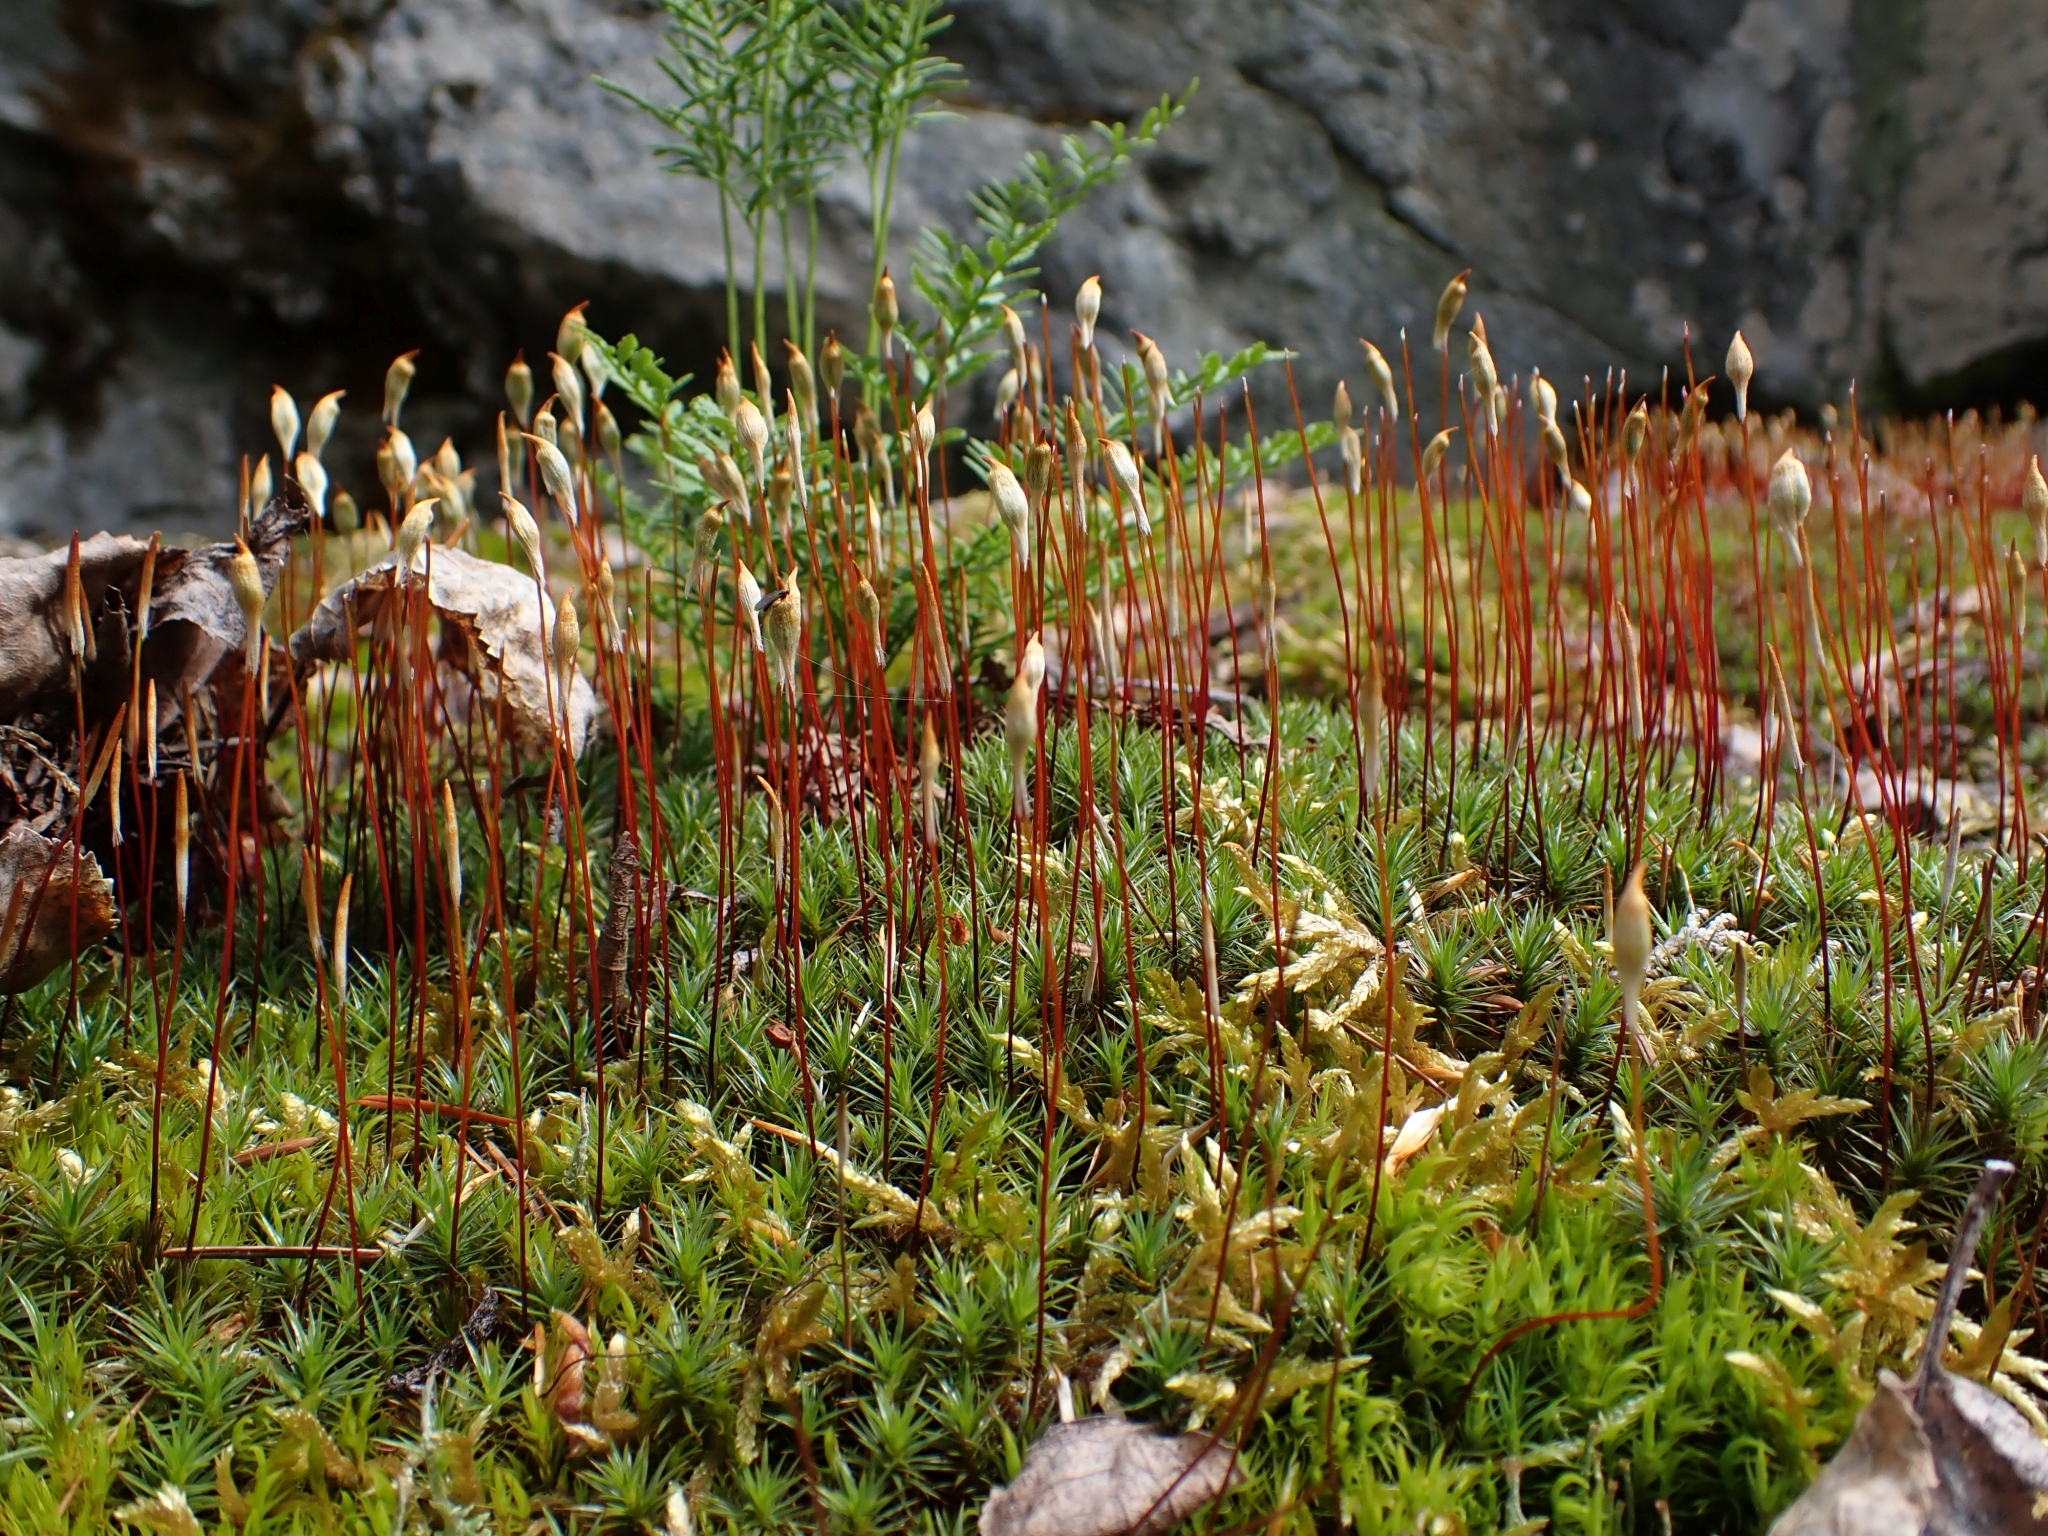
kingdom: Plantae
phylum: Bryophyta
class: Polytrichopsida
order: Polytrichales
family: Polytrichaceae
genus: Polytrichum
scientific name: Polytrichum juniperinum
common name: Juniper haircap moss
